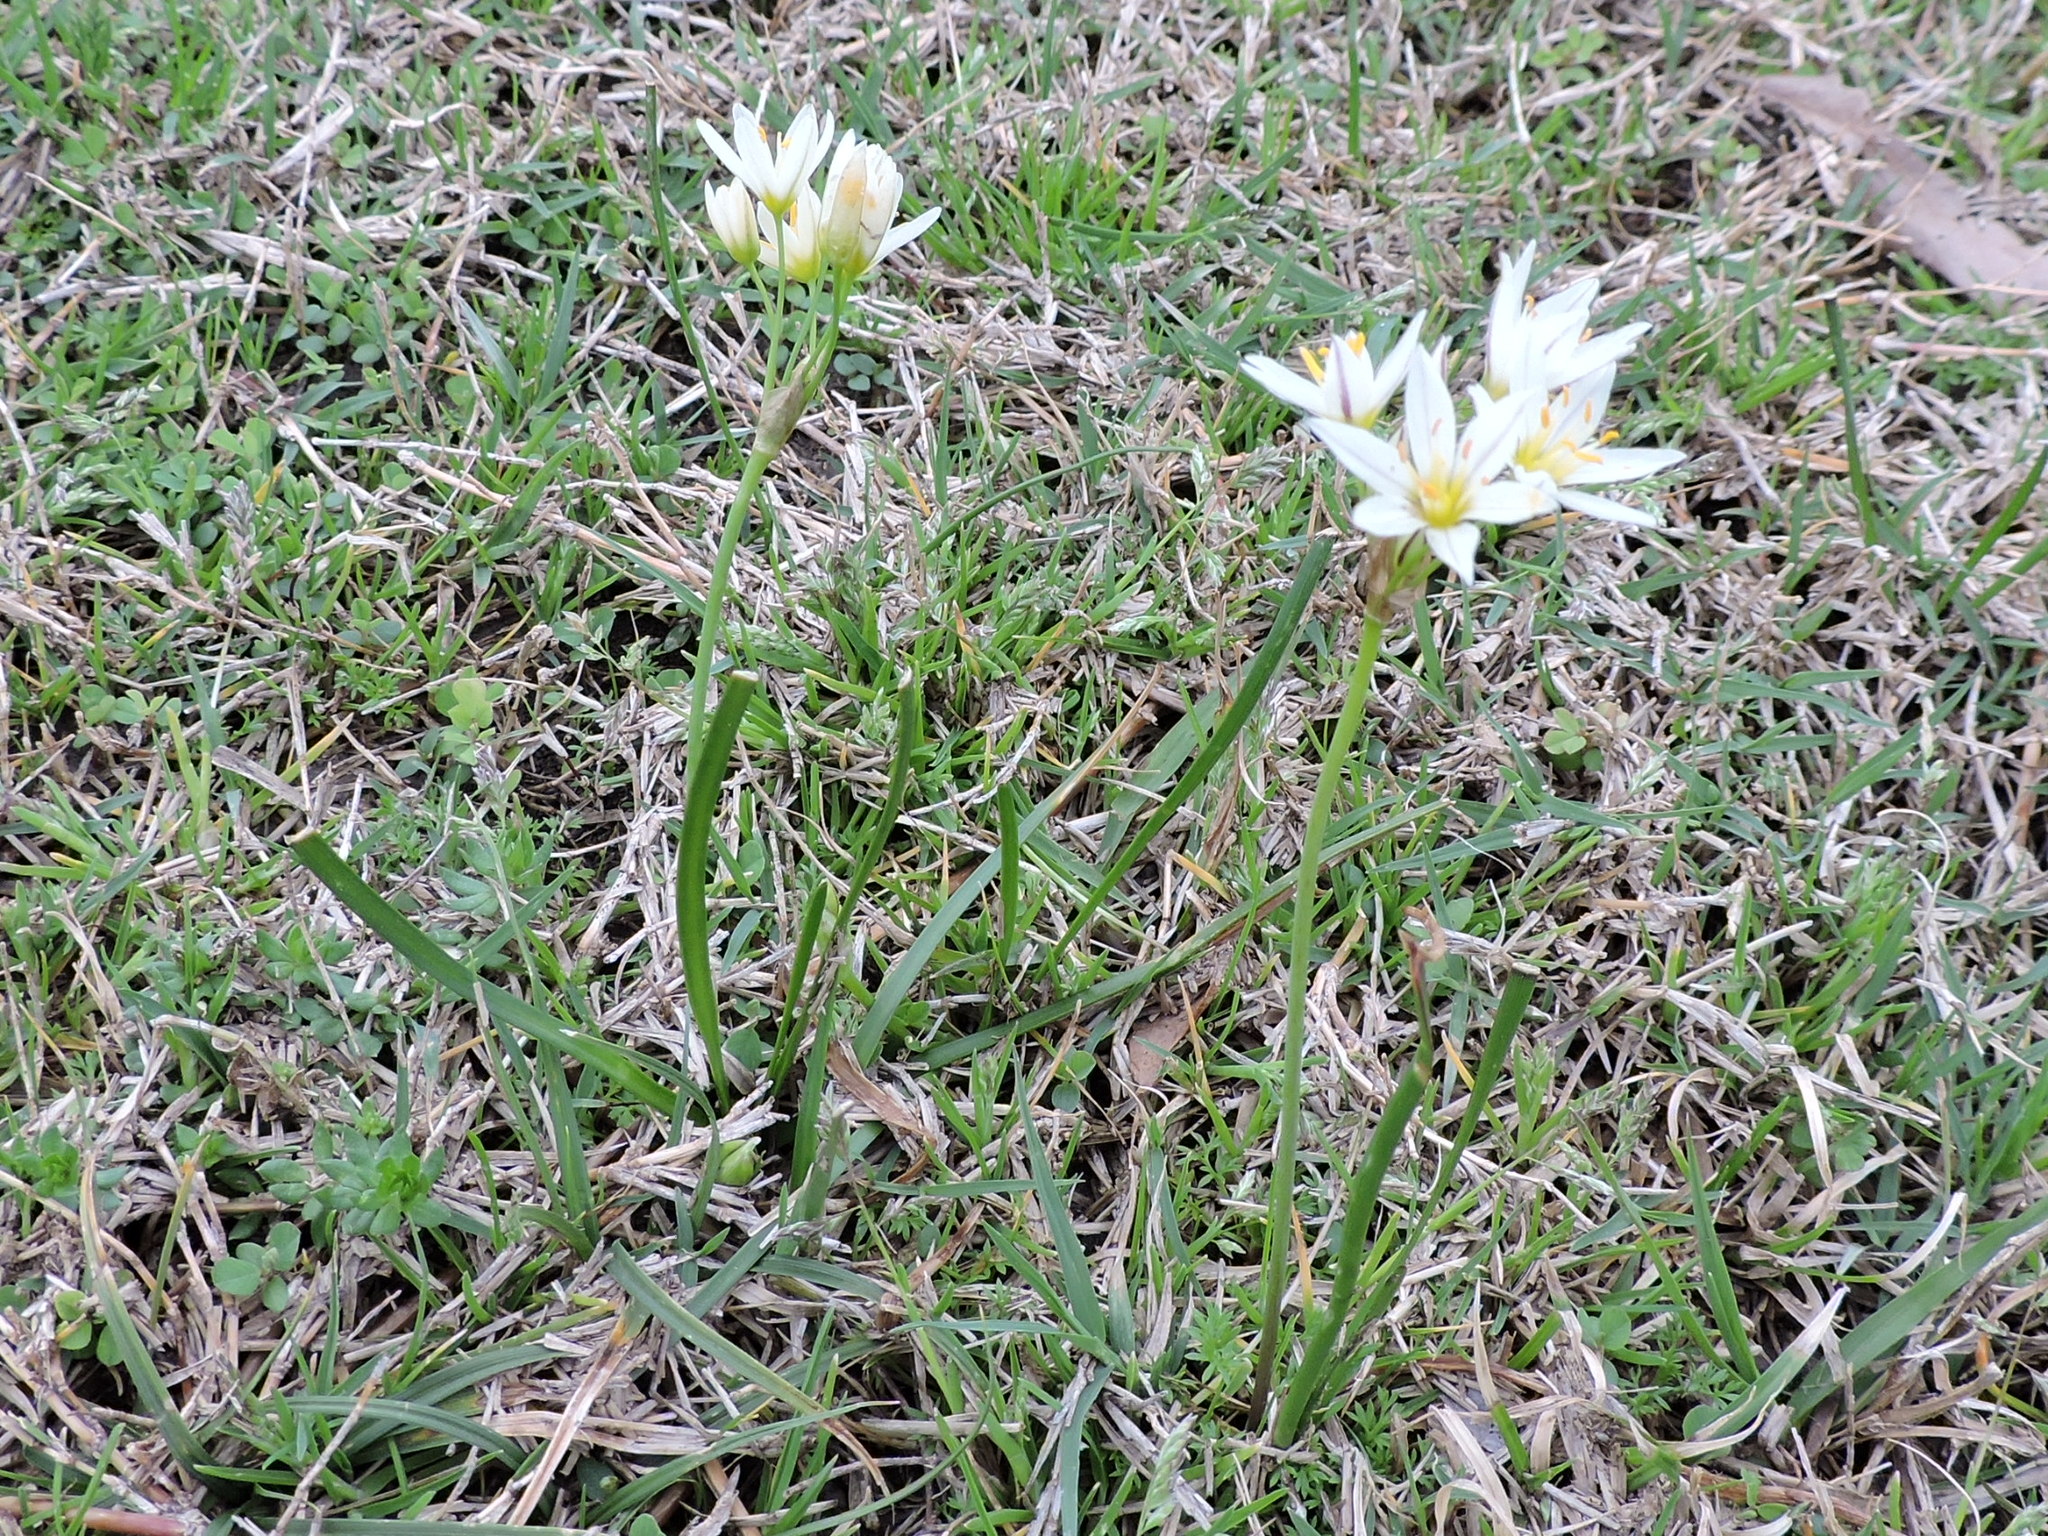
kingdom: Plantae
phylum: Tracheophyta
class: Liliopsida
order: Asparagales
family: Amaryllidaceae
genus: Nothoscordum
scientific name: Nothoscordum bivalve
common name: Crow-poison
